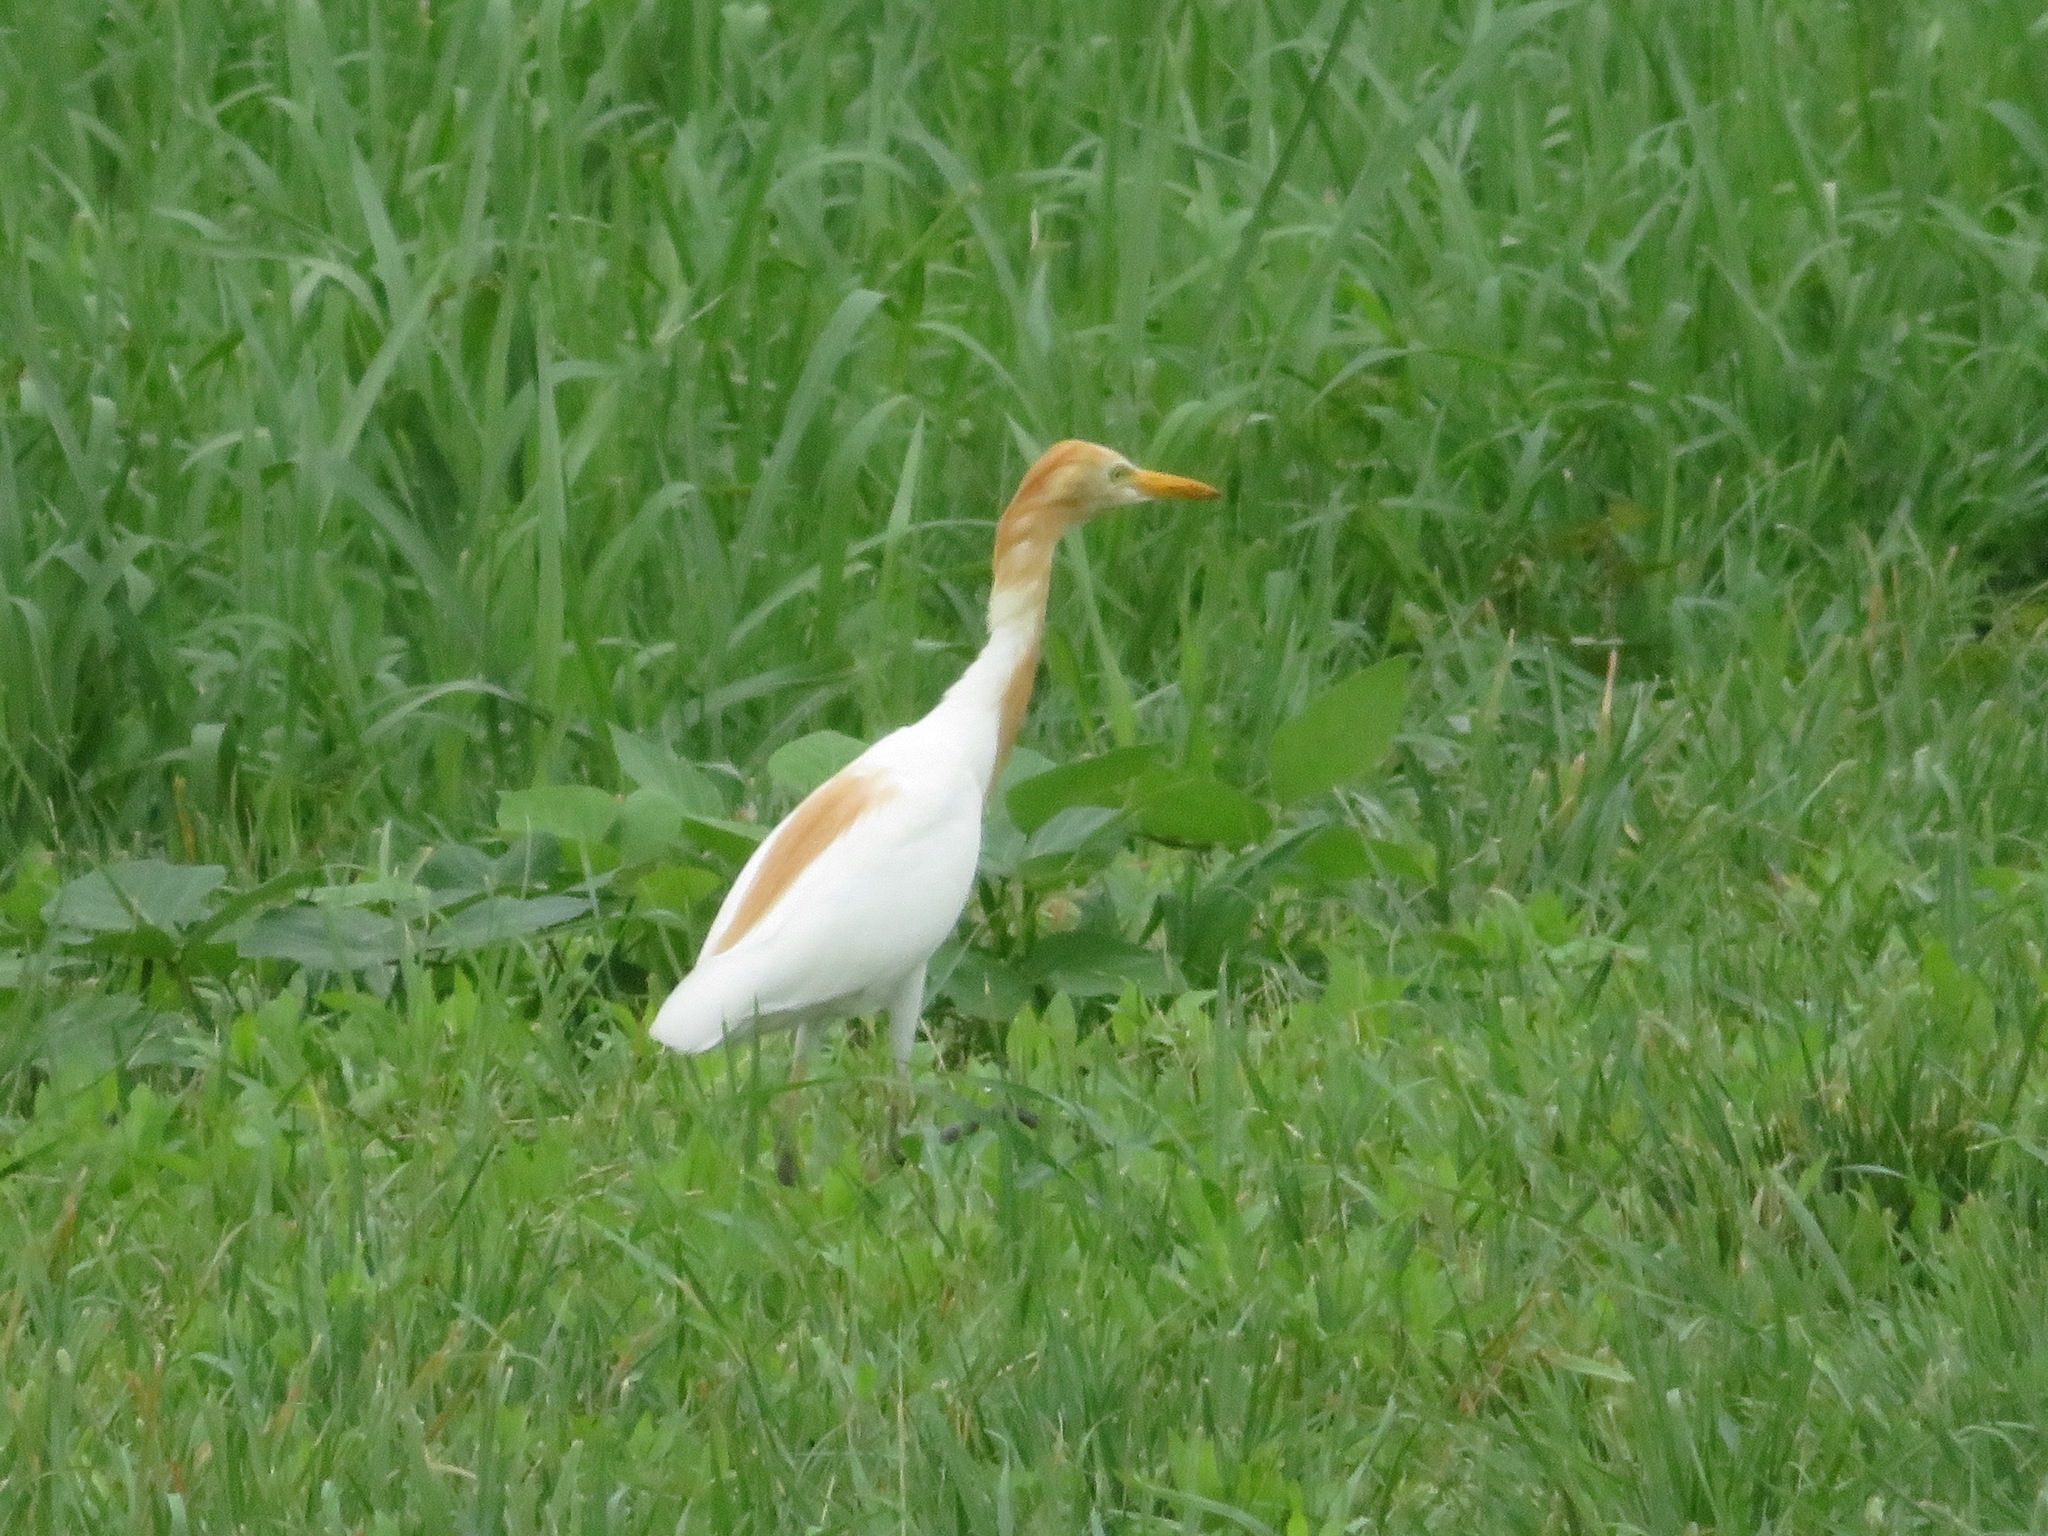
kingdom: Animalia
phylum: Chordata
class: Aves
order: Pelecaniformes
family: Ardeidae
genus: Bubulcus
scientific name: Bubulcus coromandus
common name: Eastern cattle egret
